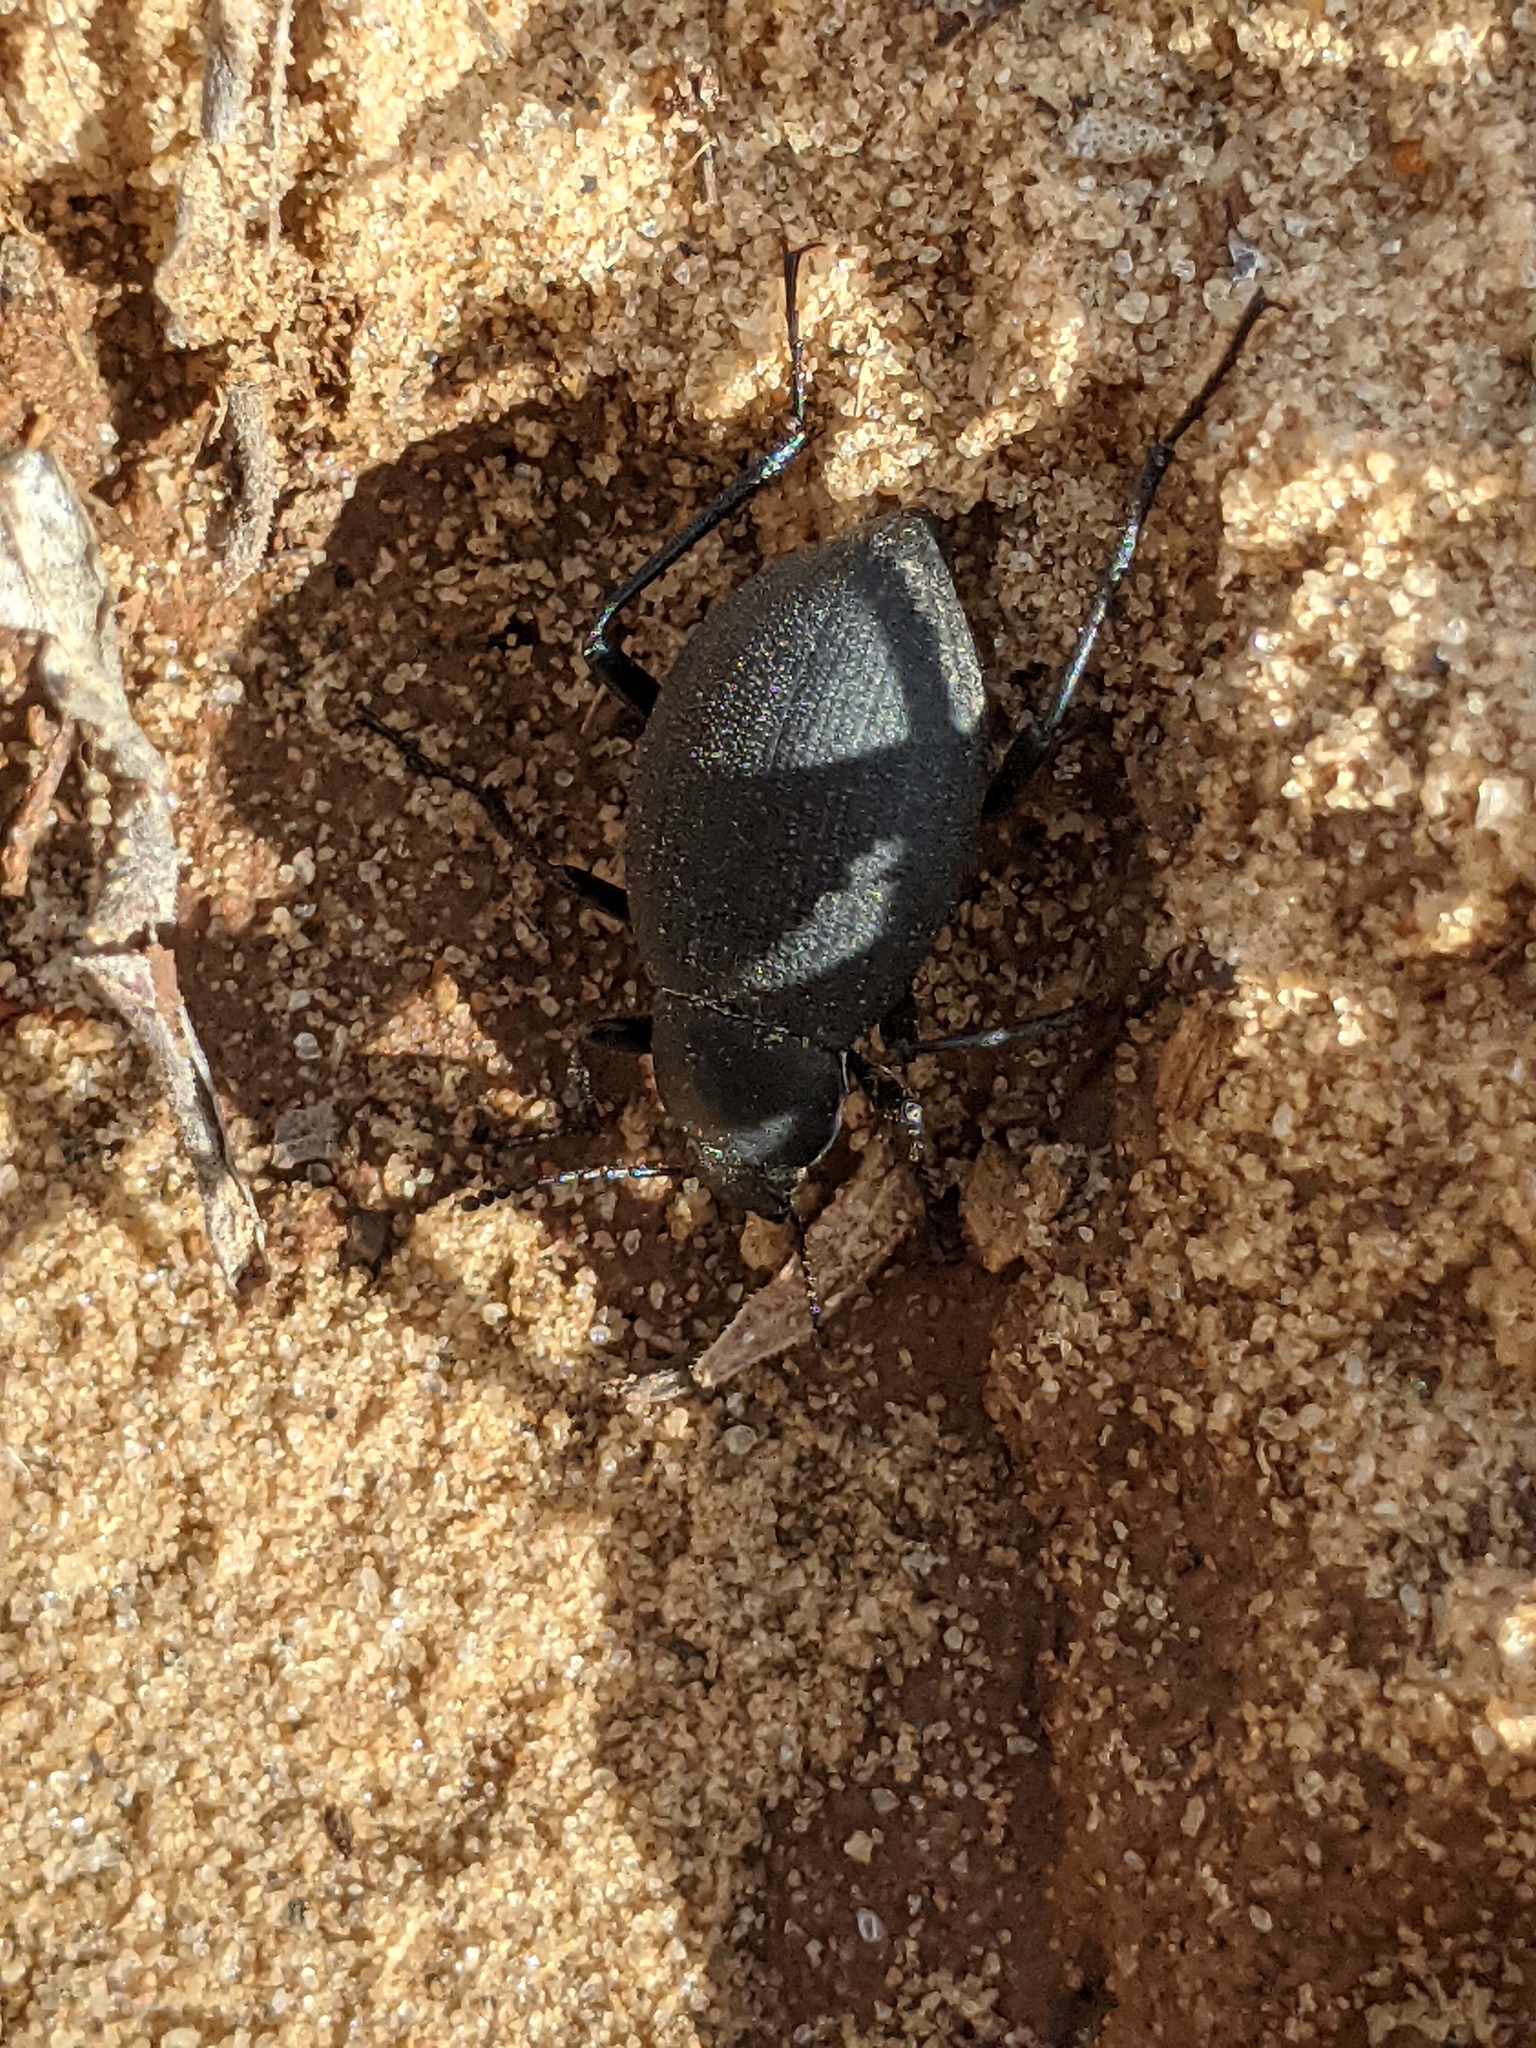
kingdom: Animalia
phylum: Arthropoda
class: Insecta
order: Coleoptera
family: Tenebrionidae
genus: Eleodes
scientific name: Eleodes spiculifera
